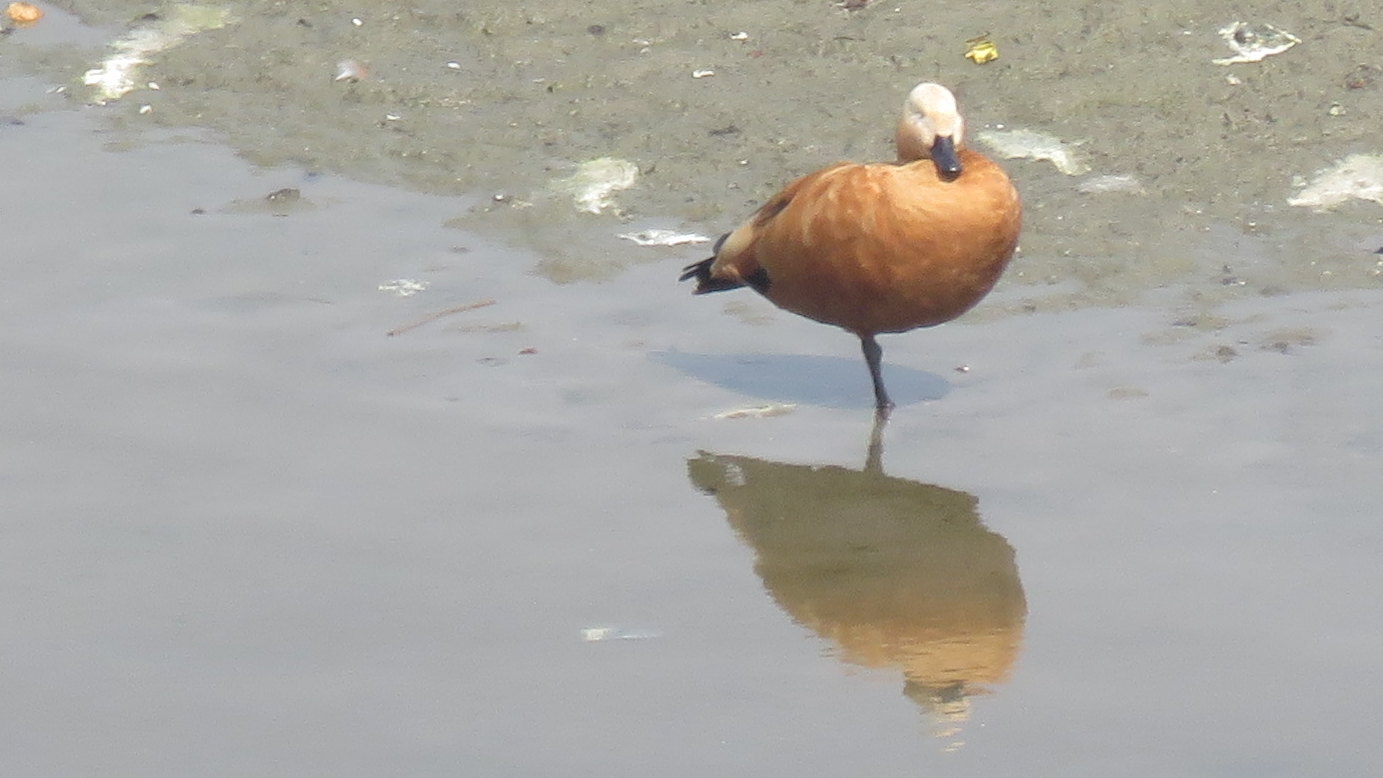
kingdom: Animalia
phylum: Chordata
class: Aves
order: Anseriformes
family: Anatidae
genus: Tadorna
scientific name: Tadorna ferruginea
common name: Ruddy shelduck
